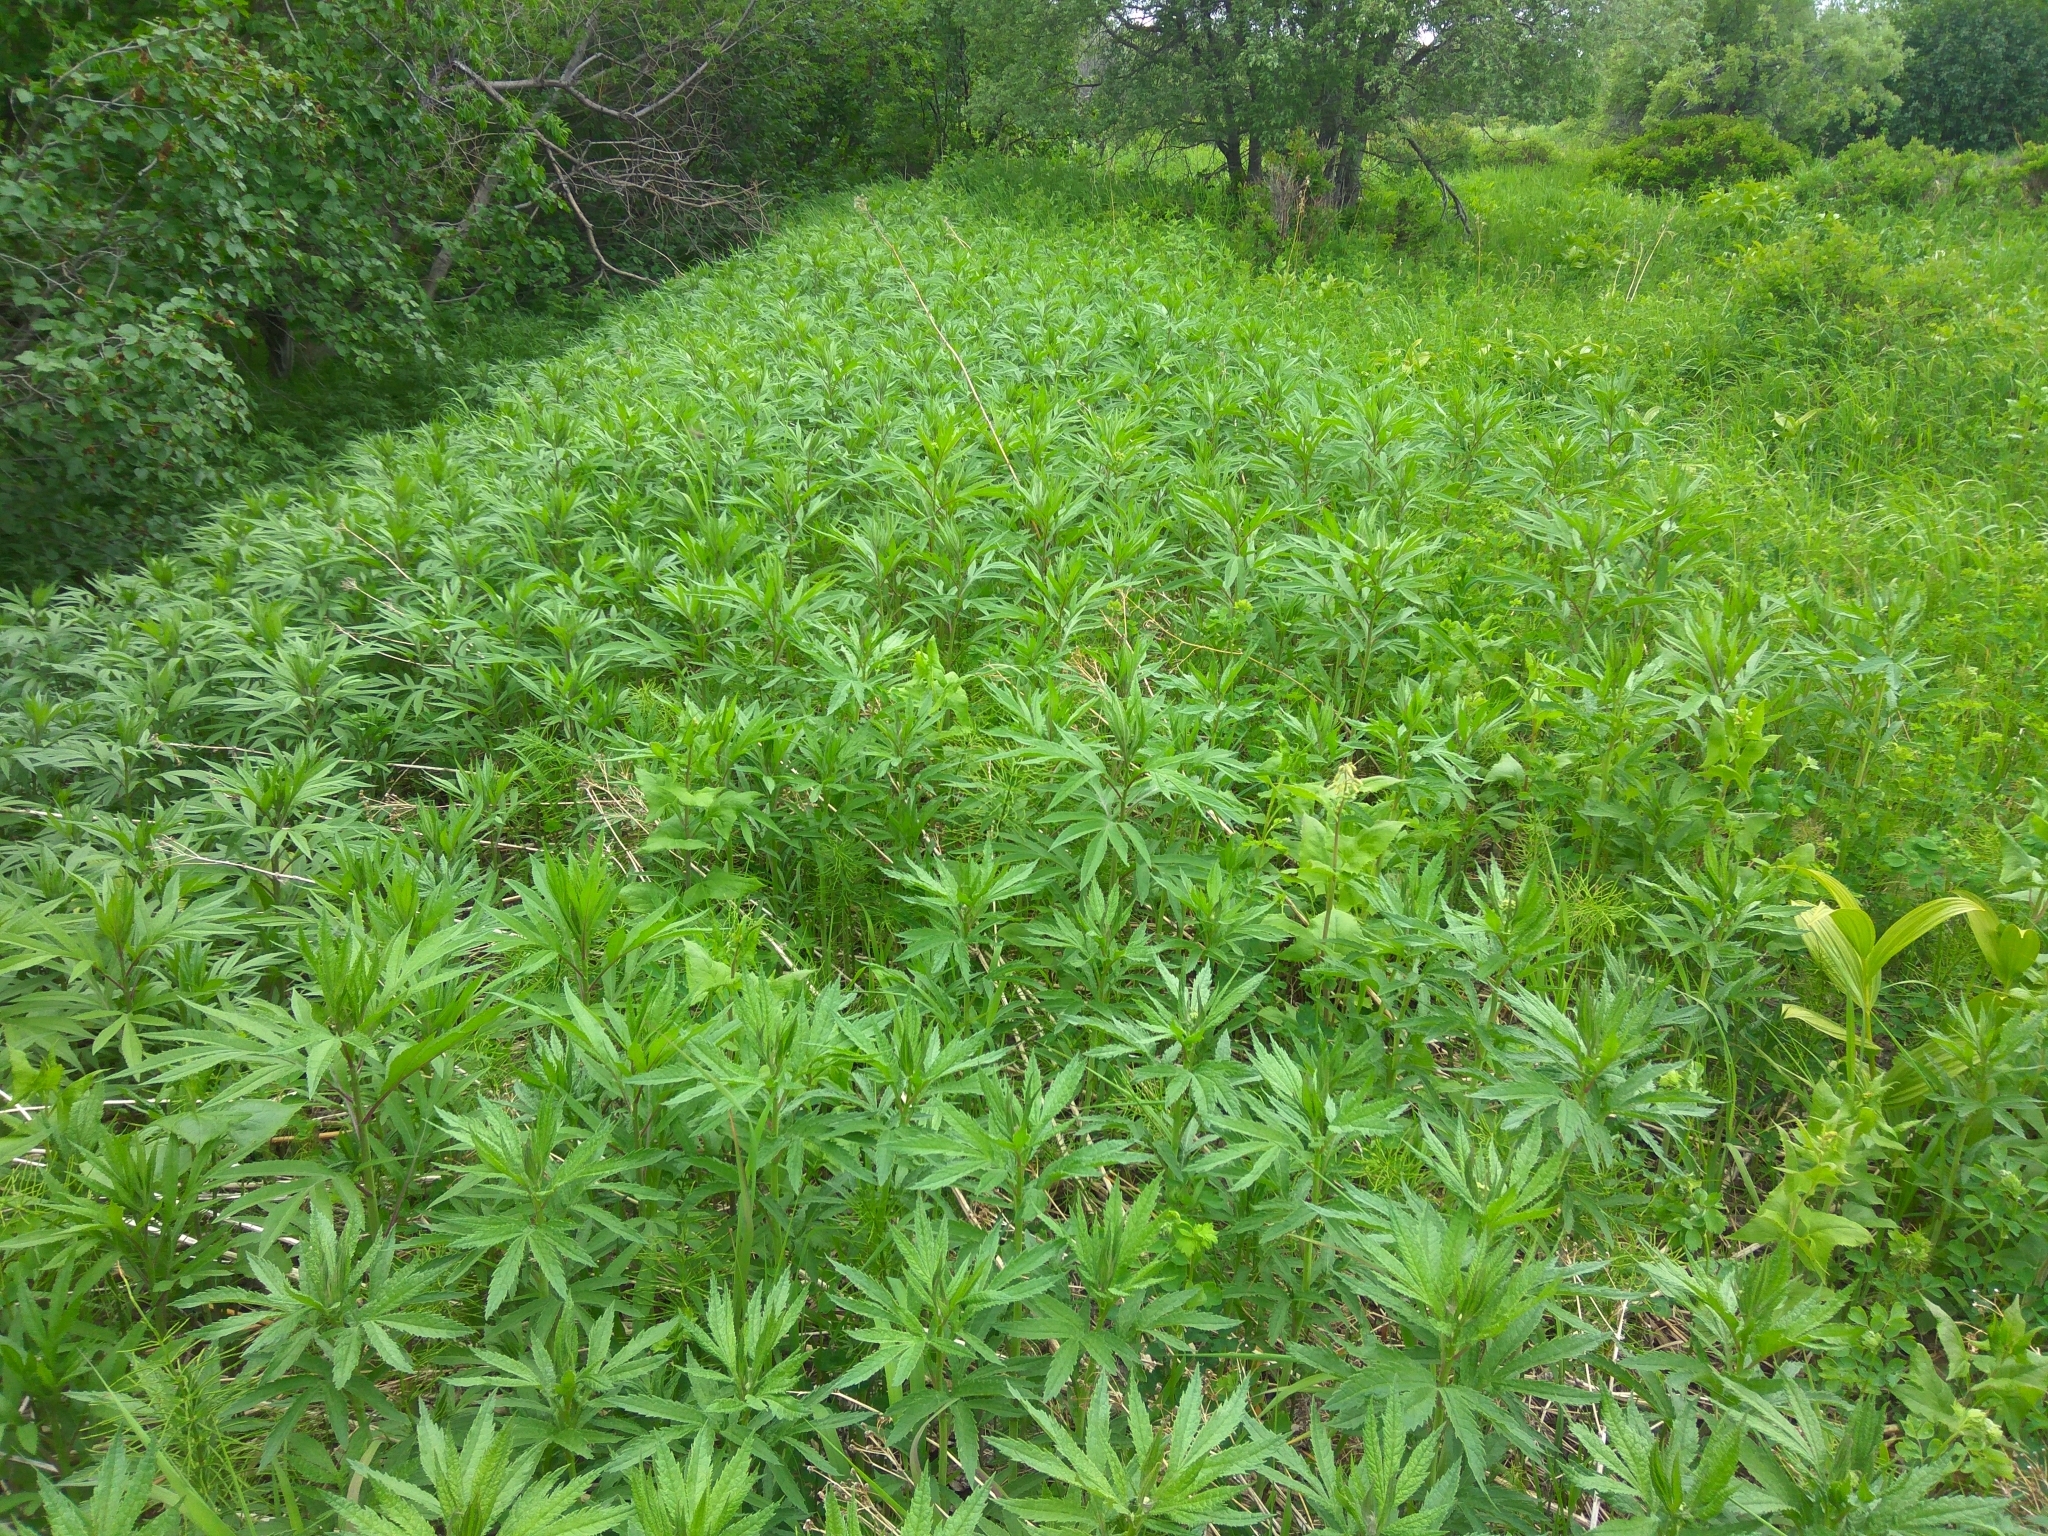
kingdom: Plantae
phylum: Tracheophyta
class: Magnoliopsida
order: Asterales
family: Asteraceae
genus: Jacobaea
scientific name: Jacobaea cannabifolia
